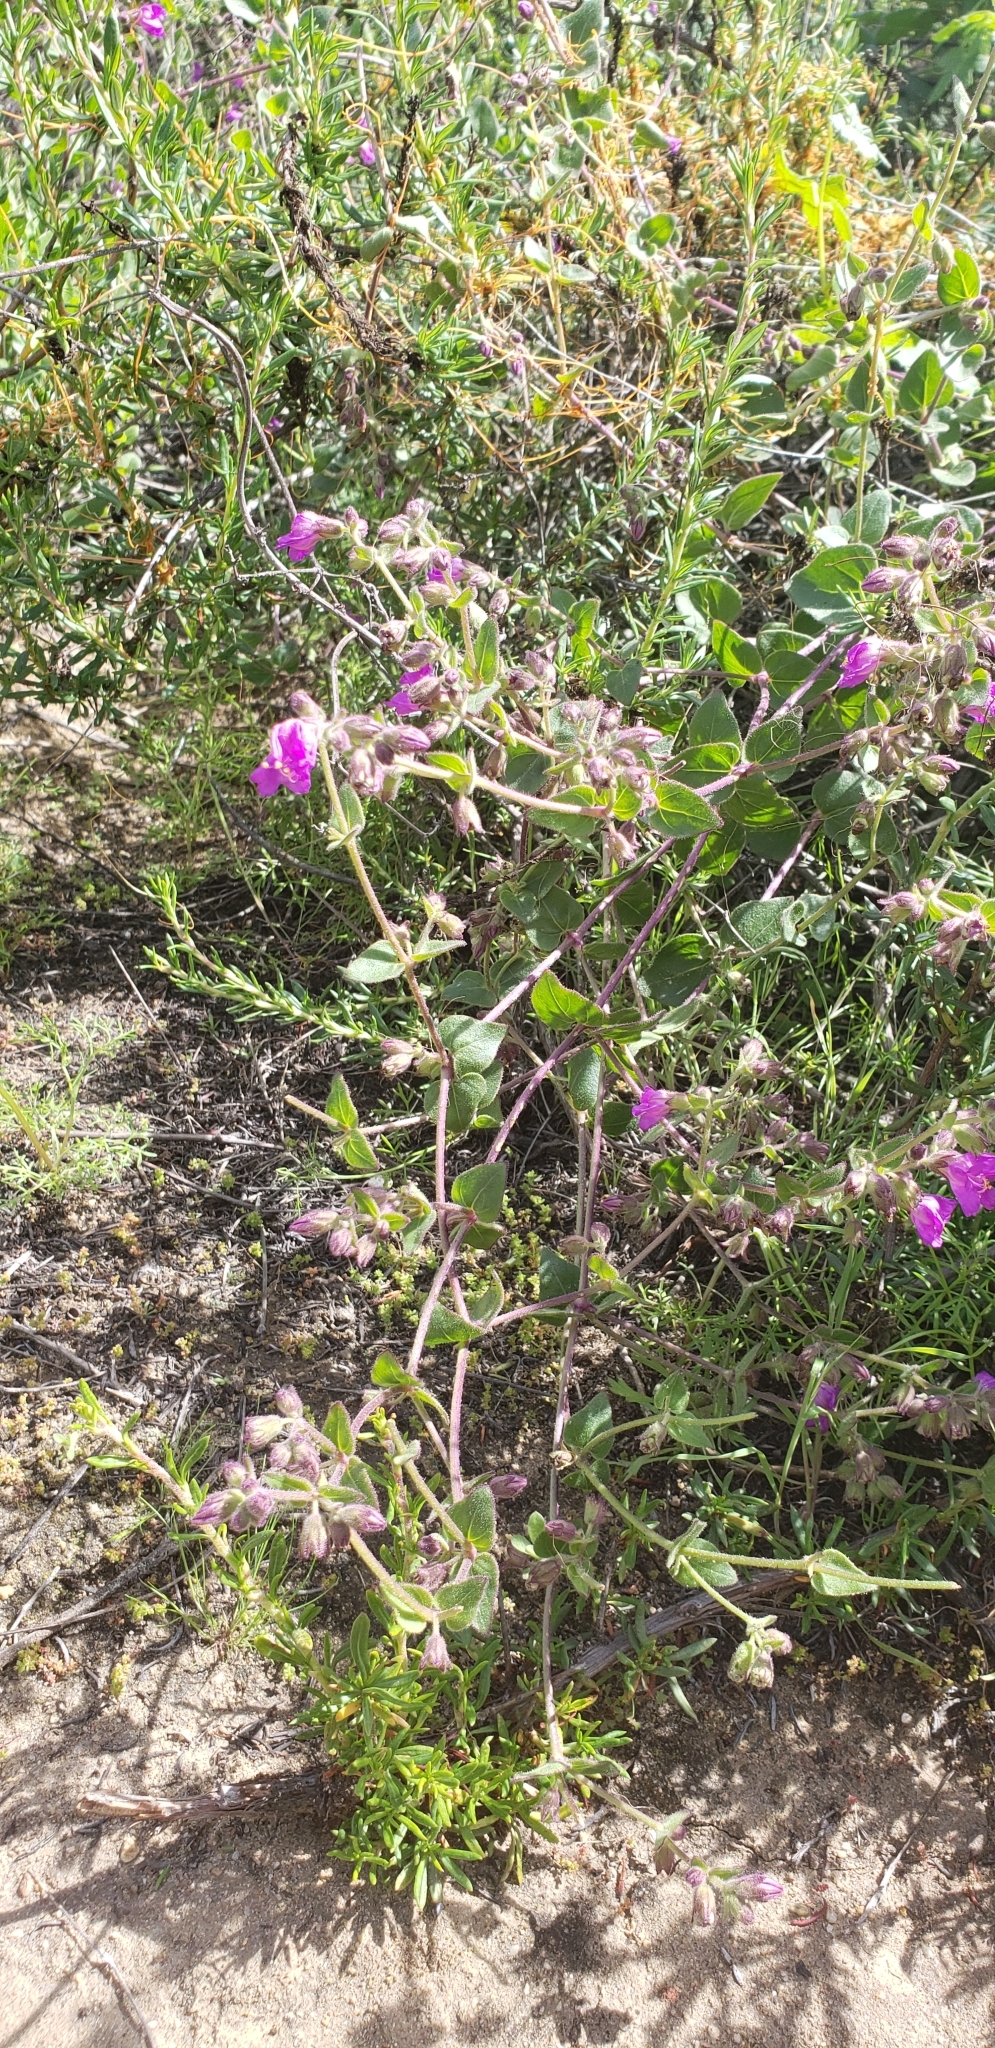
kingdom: Plantae
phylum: Tracheophyta
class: Magnoliopsida
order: Caryophyllales
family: Nyctaginaceae
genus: Mirabilis
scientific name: Mirabilis laevis
